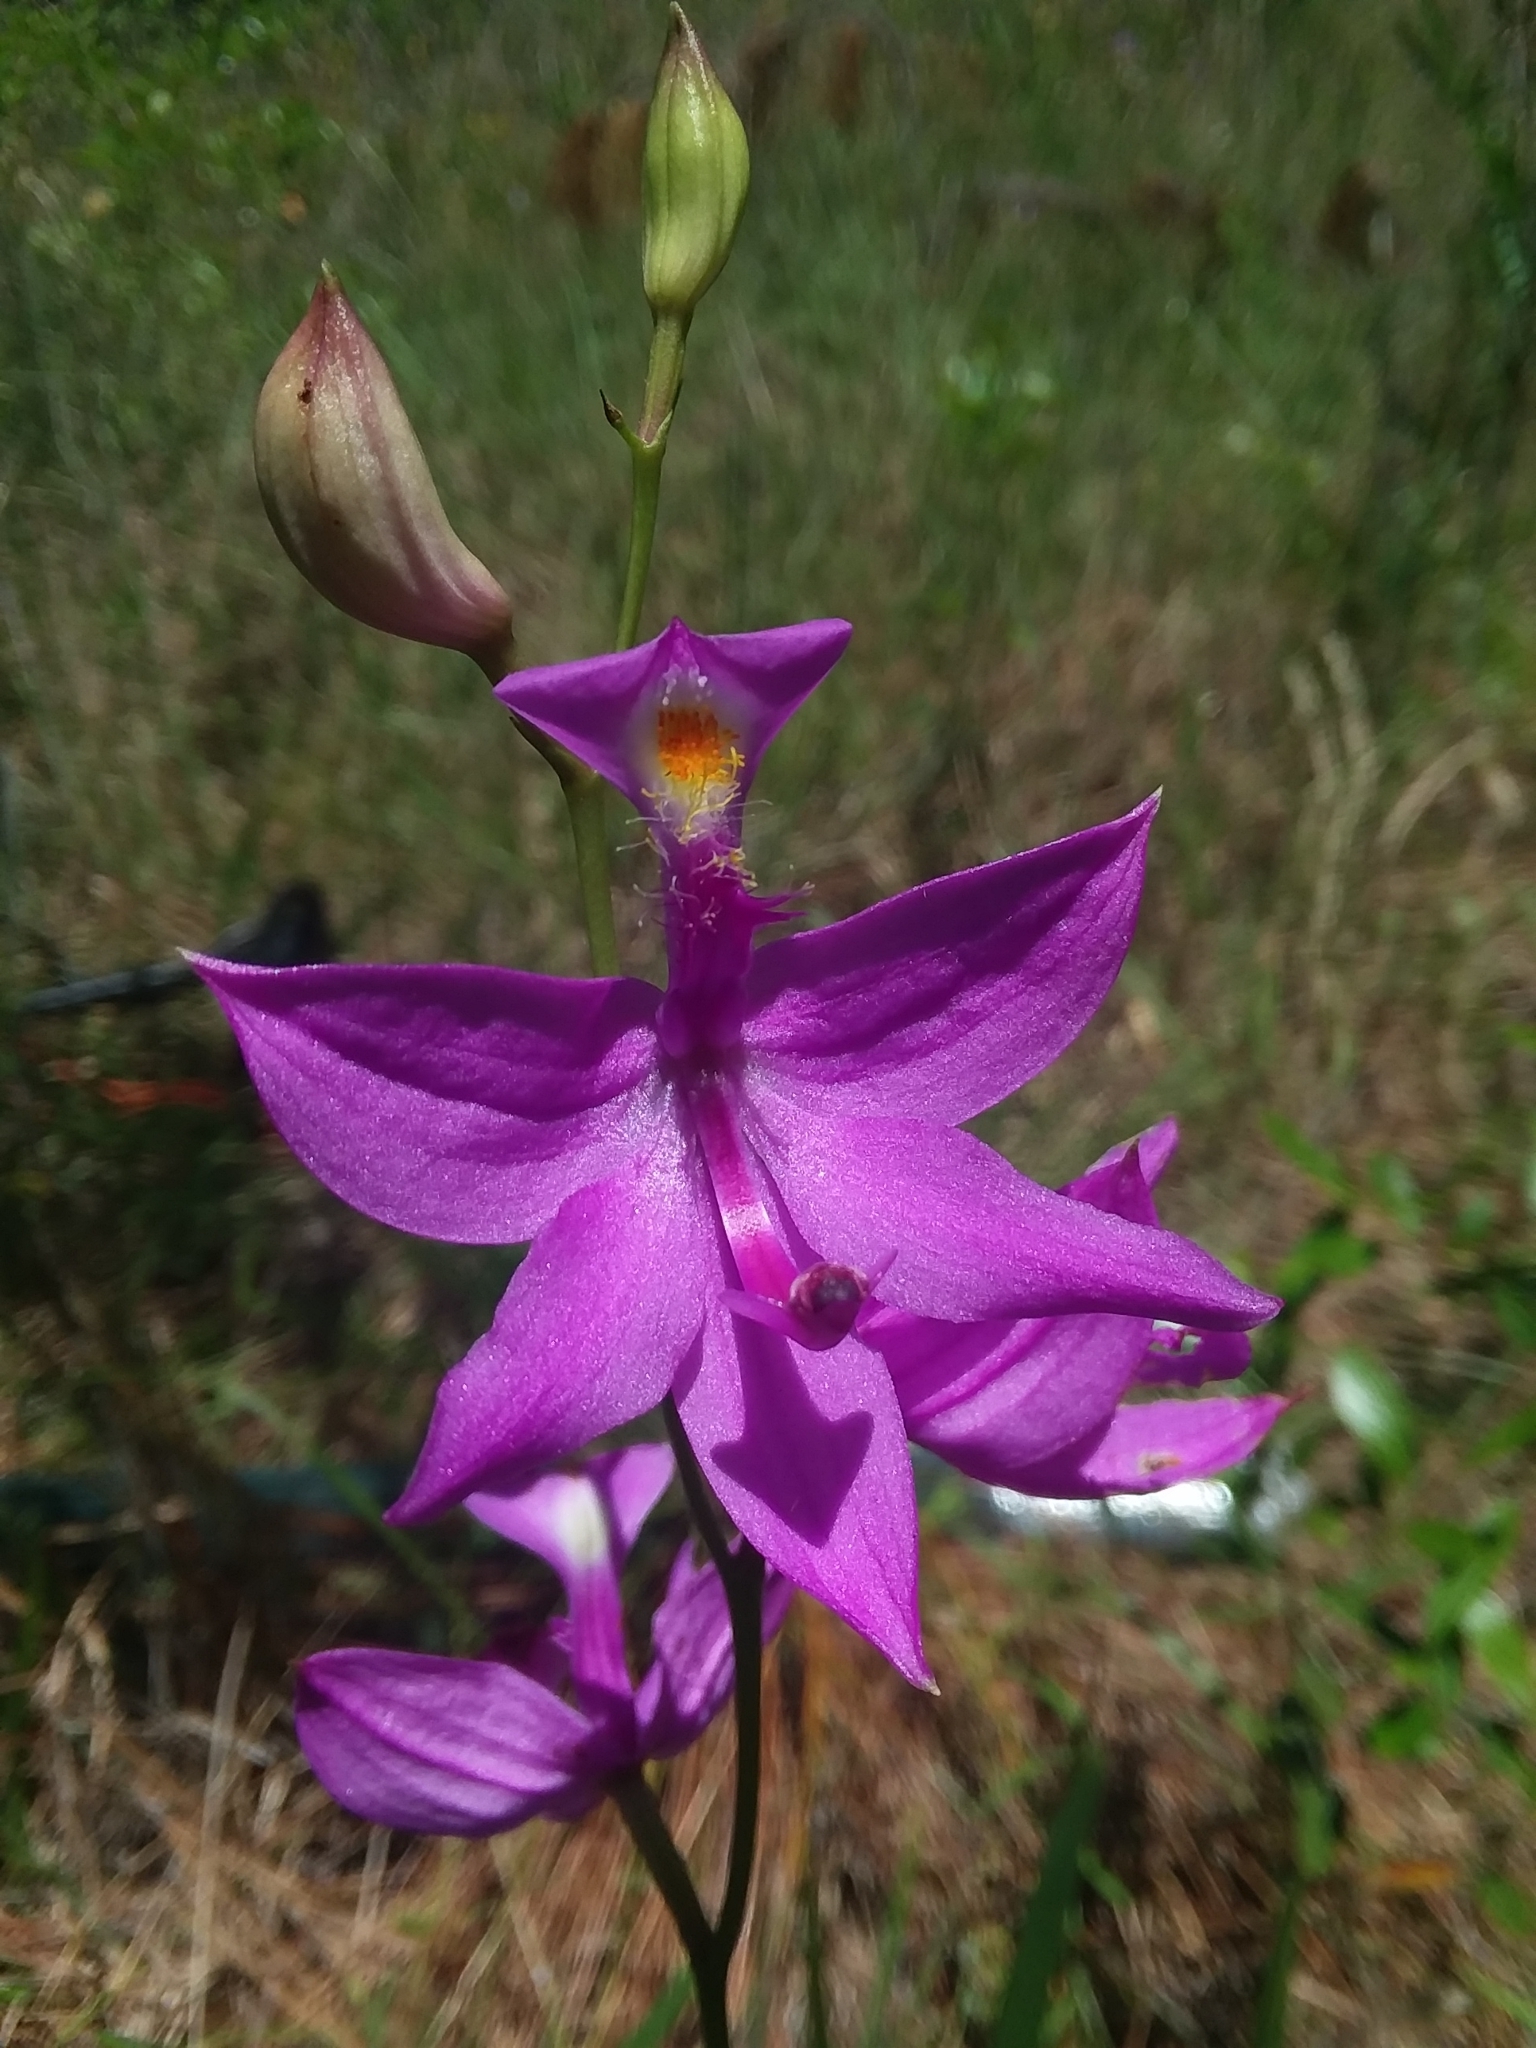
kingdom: Plantae
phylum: Tracheophyta
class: Liliopsida
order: Asparagales
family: Orchidaceae
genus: Calopogon
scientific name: Calopogon tuberosus
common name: Grass-pink
